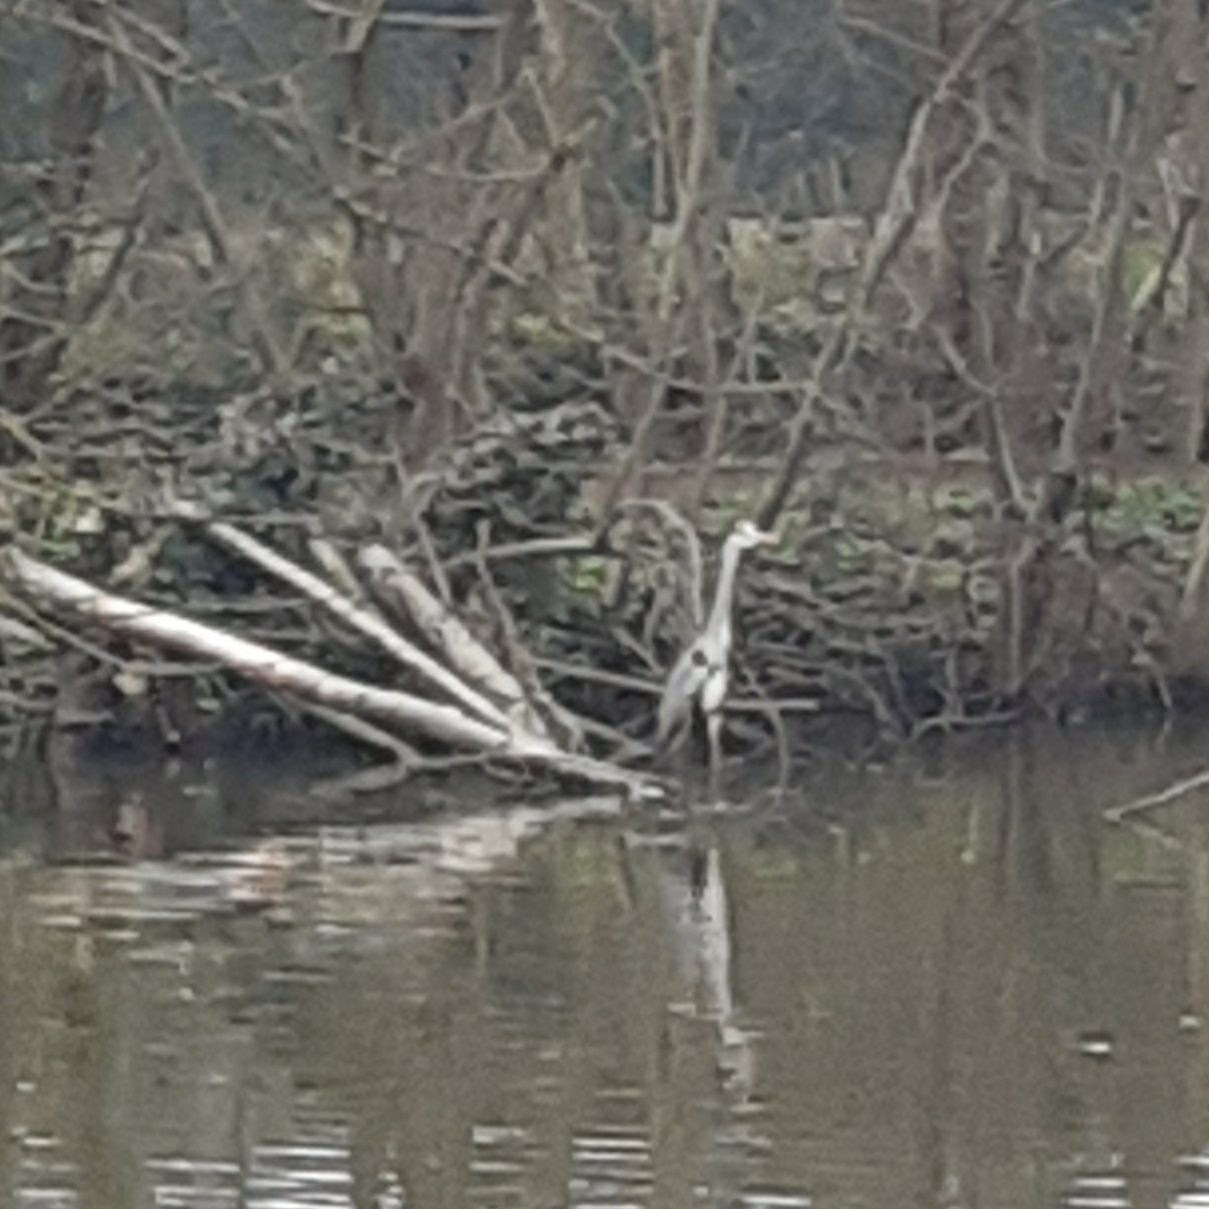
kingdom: Animalia
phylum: Chordata
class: Aves
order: Pelecaniformes
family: Ardeidae
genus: Ardea
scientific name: Ardea cinerea
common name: Grey heron
